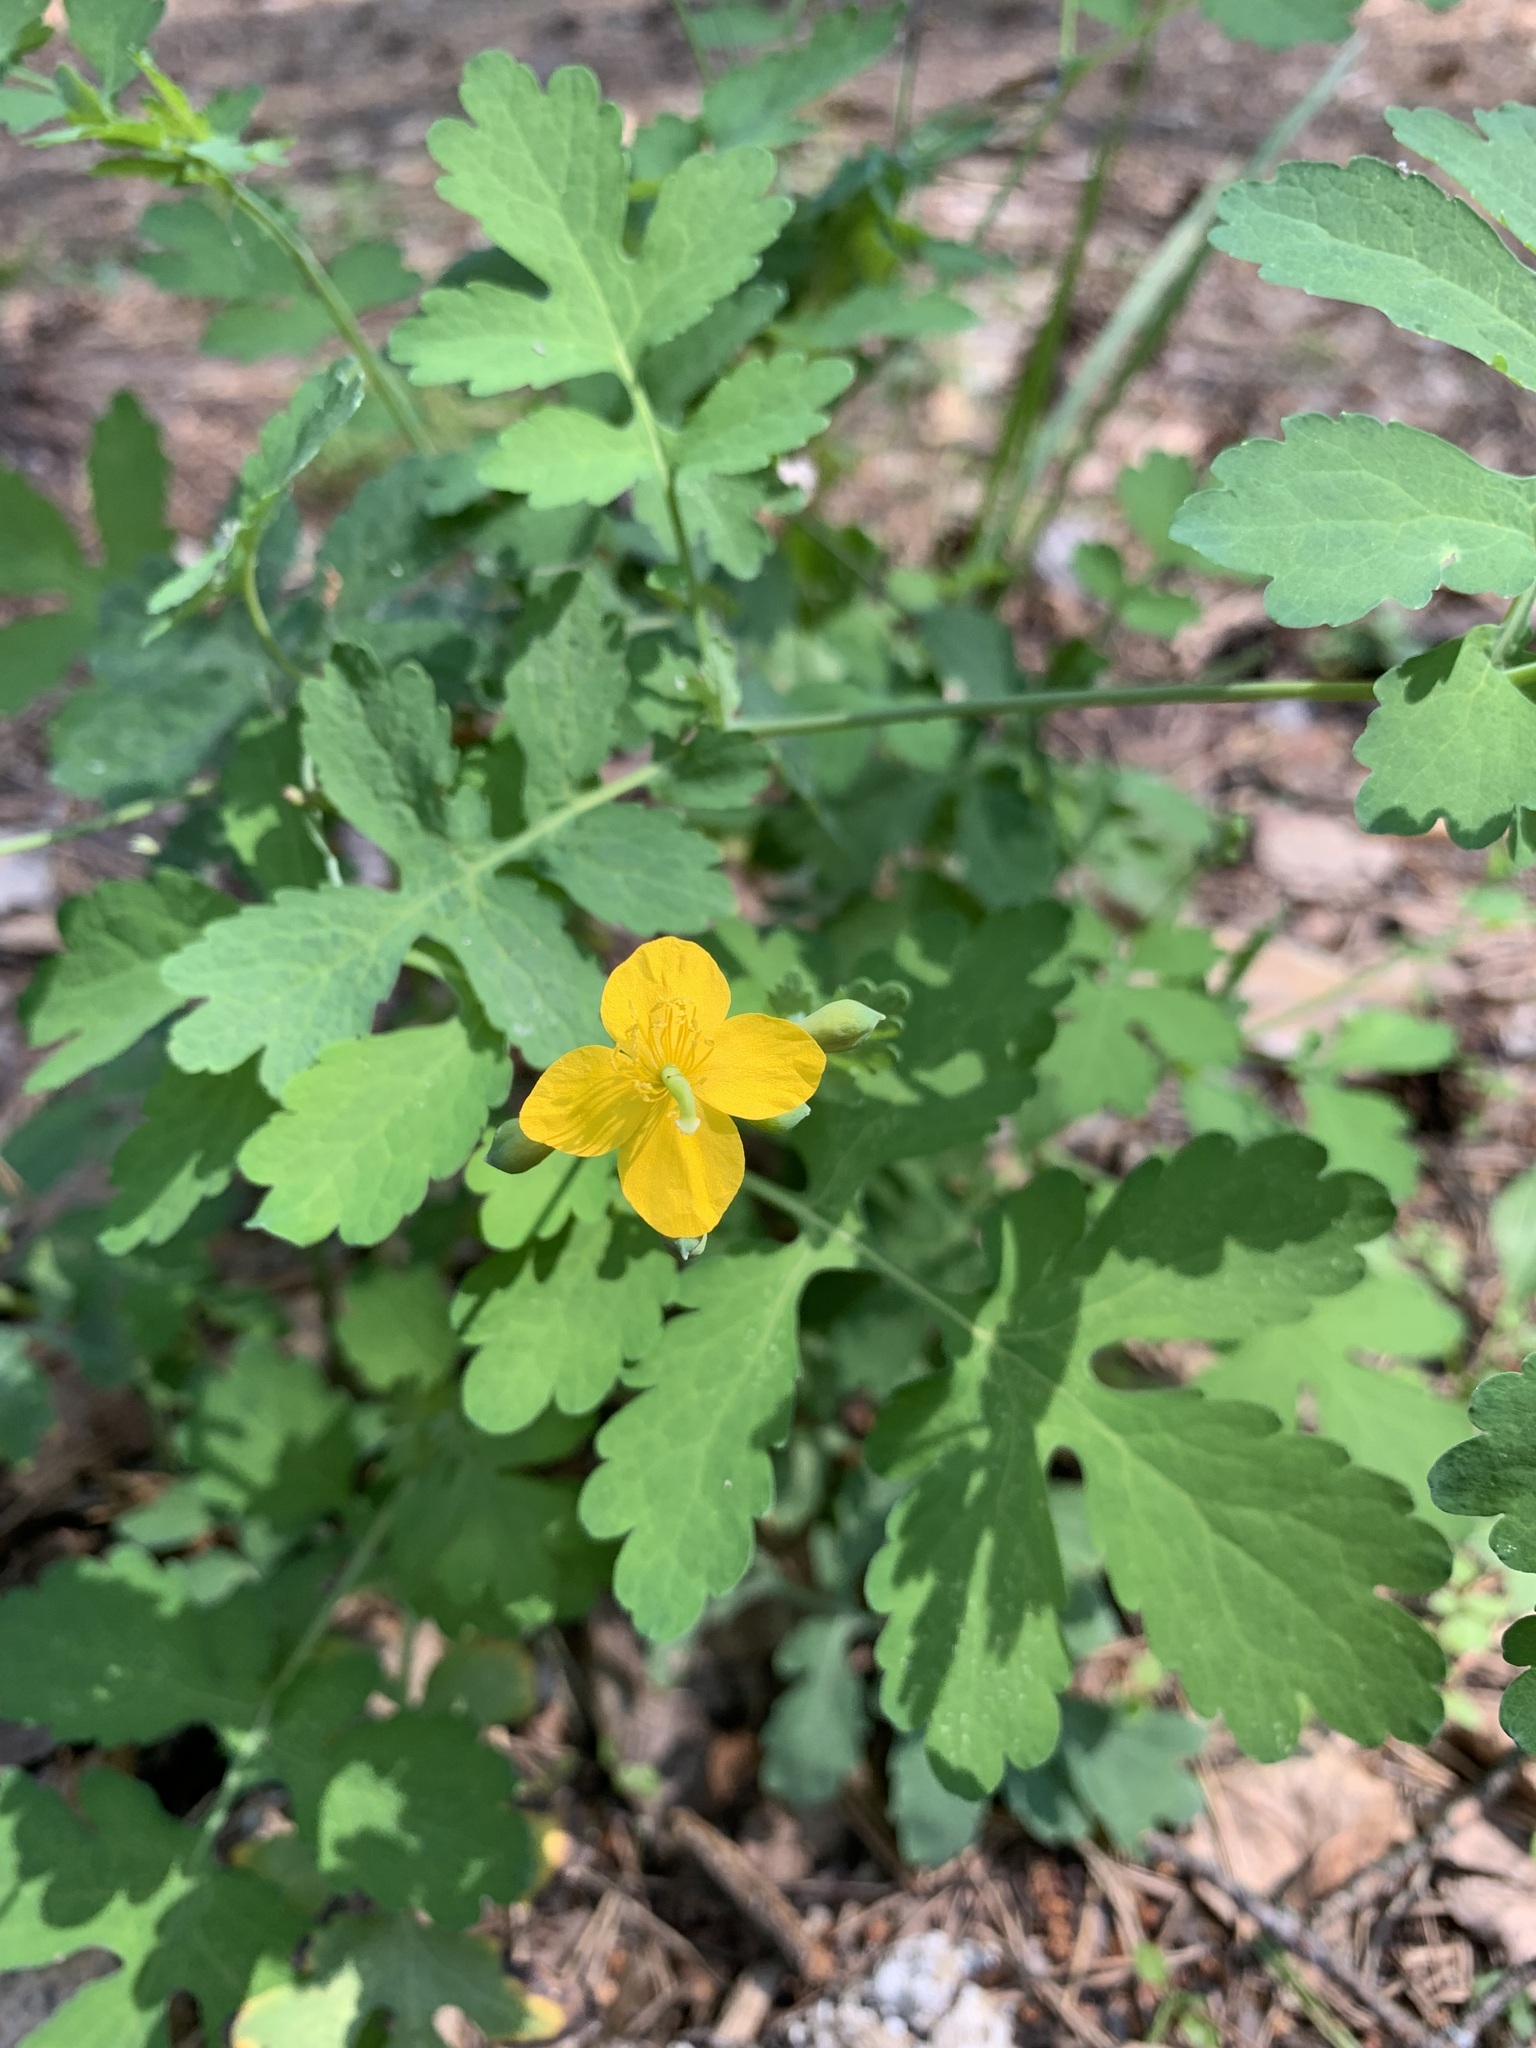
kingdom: Plantae
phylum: Tracheophyta
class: Magnoliopsida
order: Ranunculales
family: Papaveraceae
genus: Chelidonium
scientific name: Chelidonium majus
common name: Greater celandine
